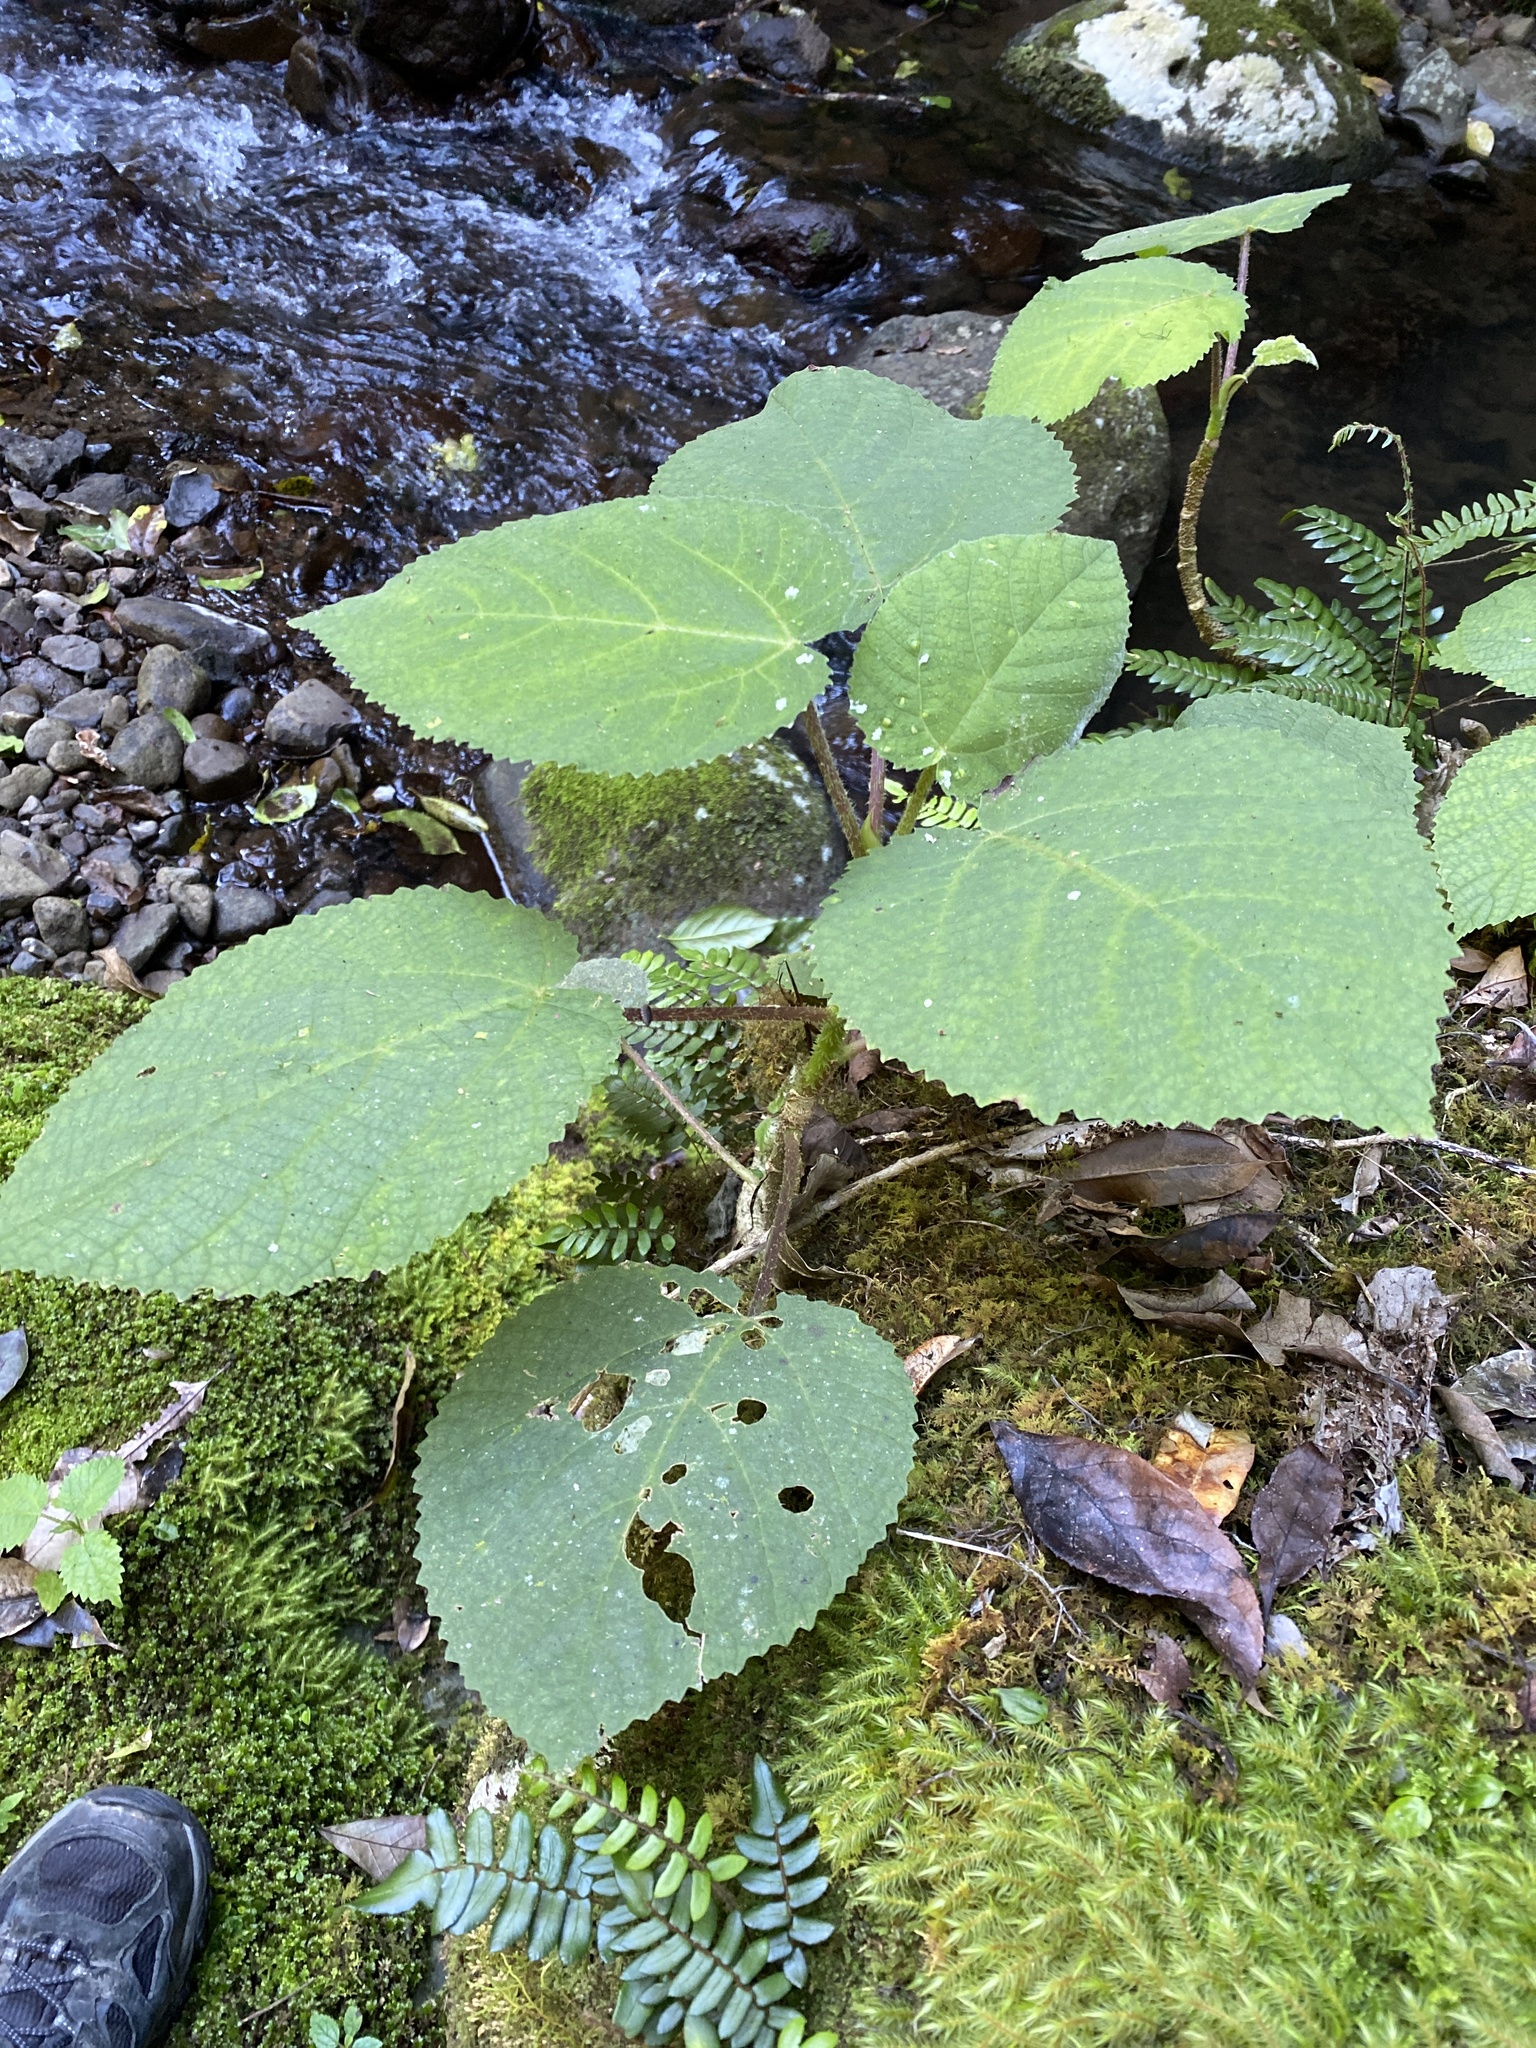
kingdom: Plantae
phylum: Tracheophyta
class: Magnoliopsida
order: Rosales
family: Urticaceae
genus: Dendrocnide
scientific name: Dendrocnide excelsa
